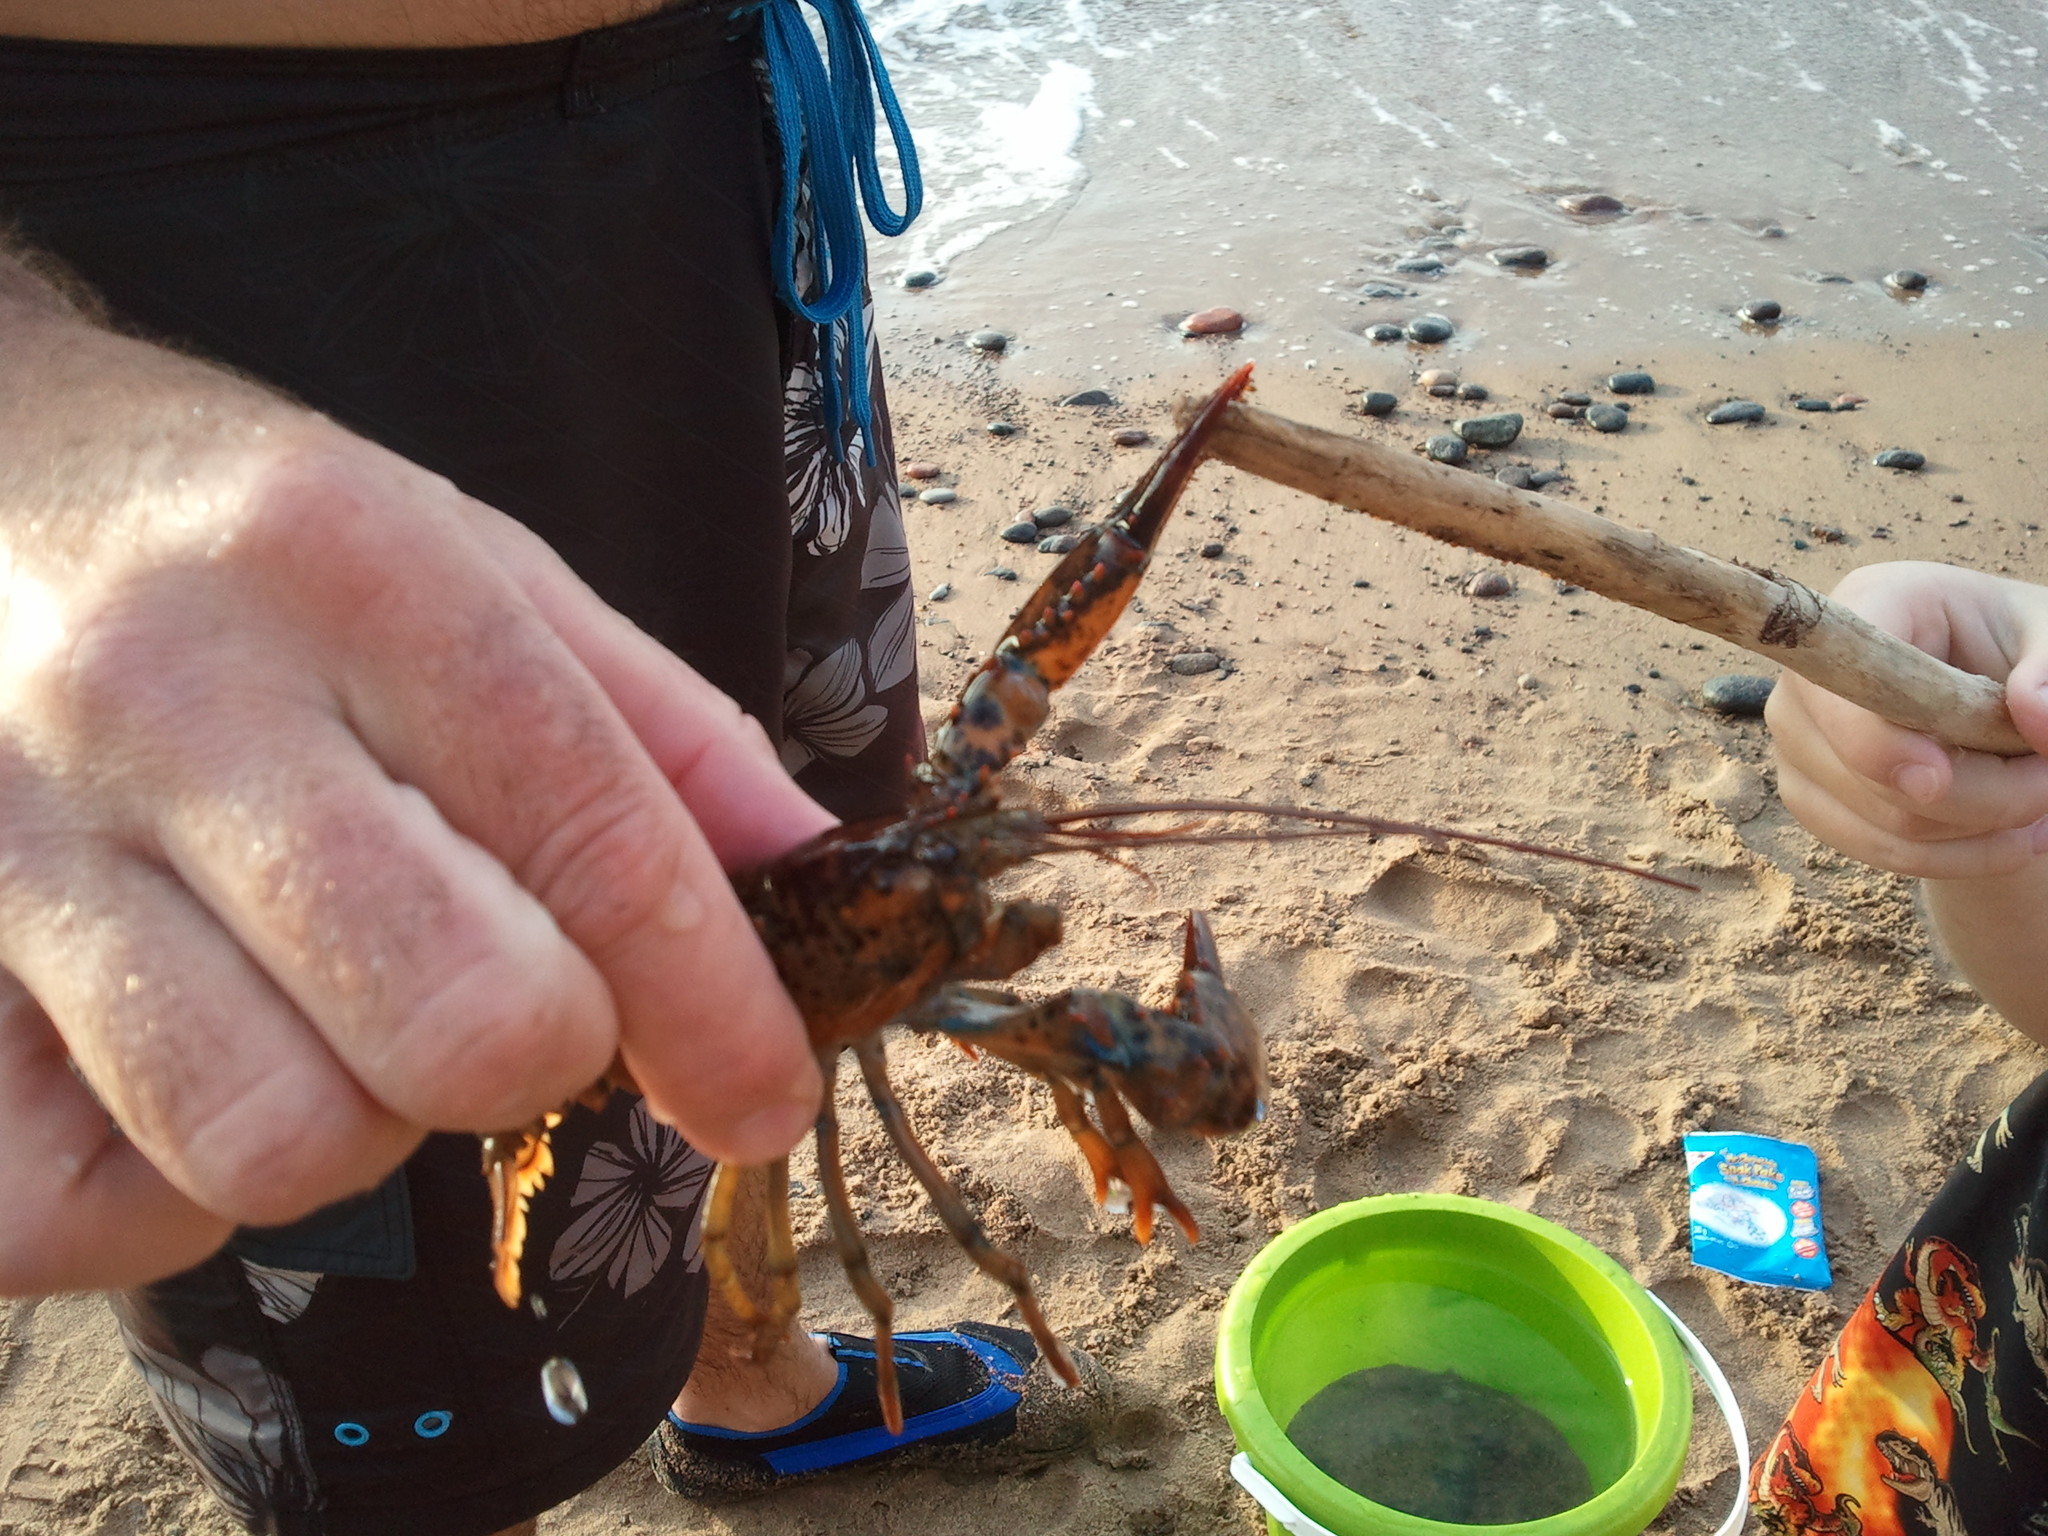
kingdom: Animalia
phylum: Arthropoda
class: Malacostraca
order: Decapoda
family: Nephropidae
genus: Homarus
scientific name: Homarus americanus
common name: American lobster
